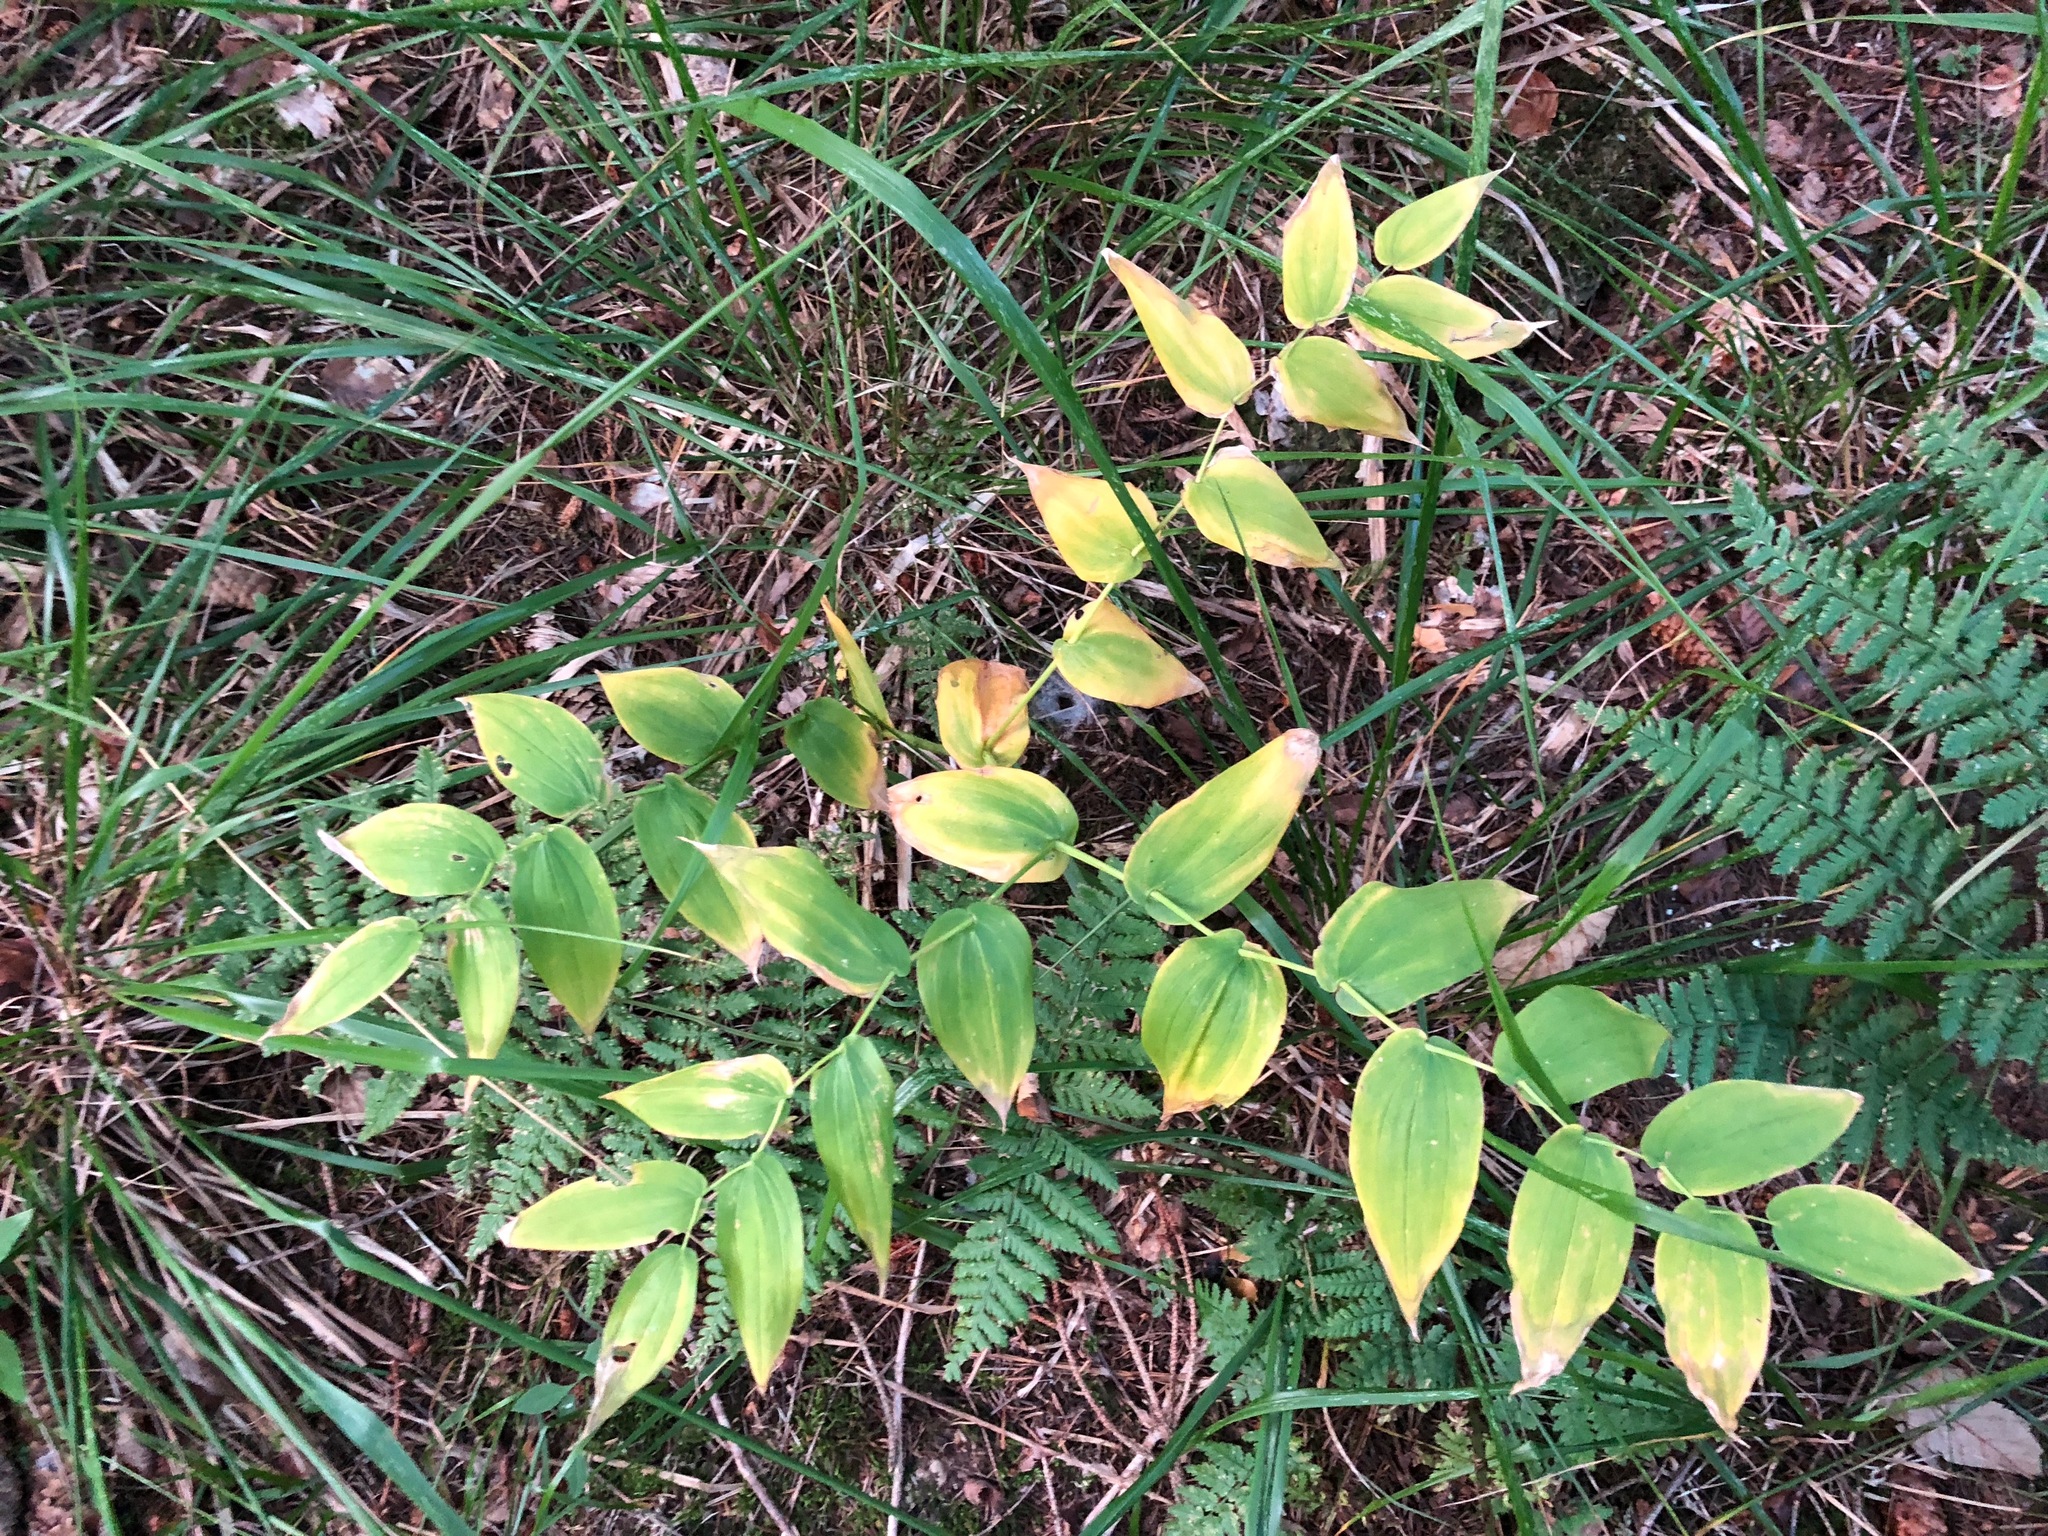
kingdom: Plantae
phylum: Tracheophyta
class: Liliopsida
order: Liliales
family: Liliaceae
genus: Streptopus
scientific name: Streptopus amplexifolius
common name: Clasp twisted stalk
